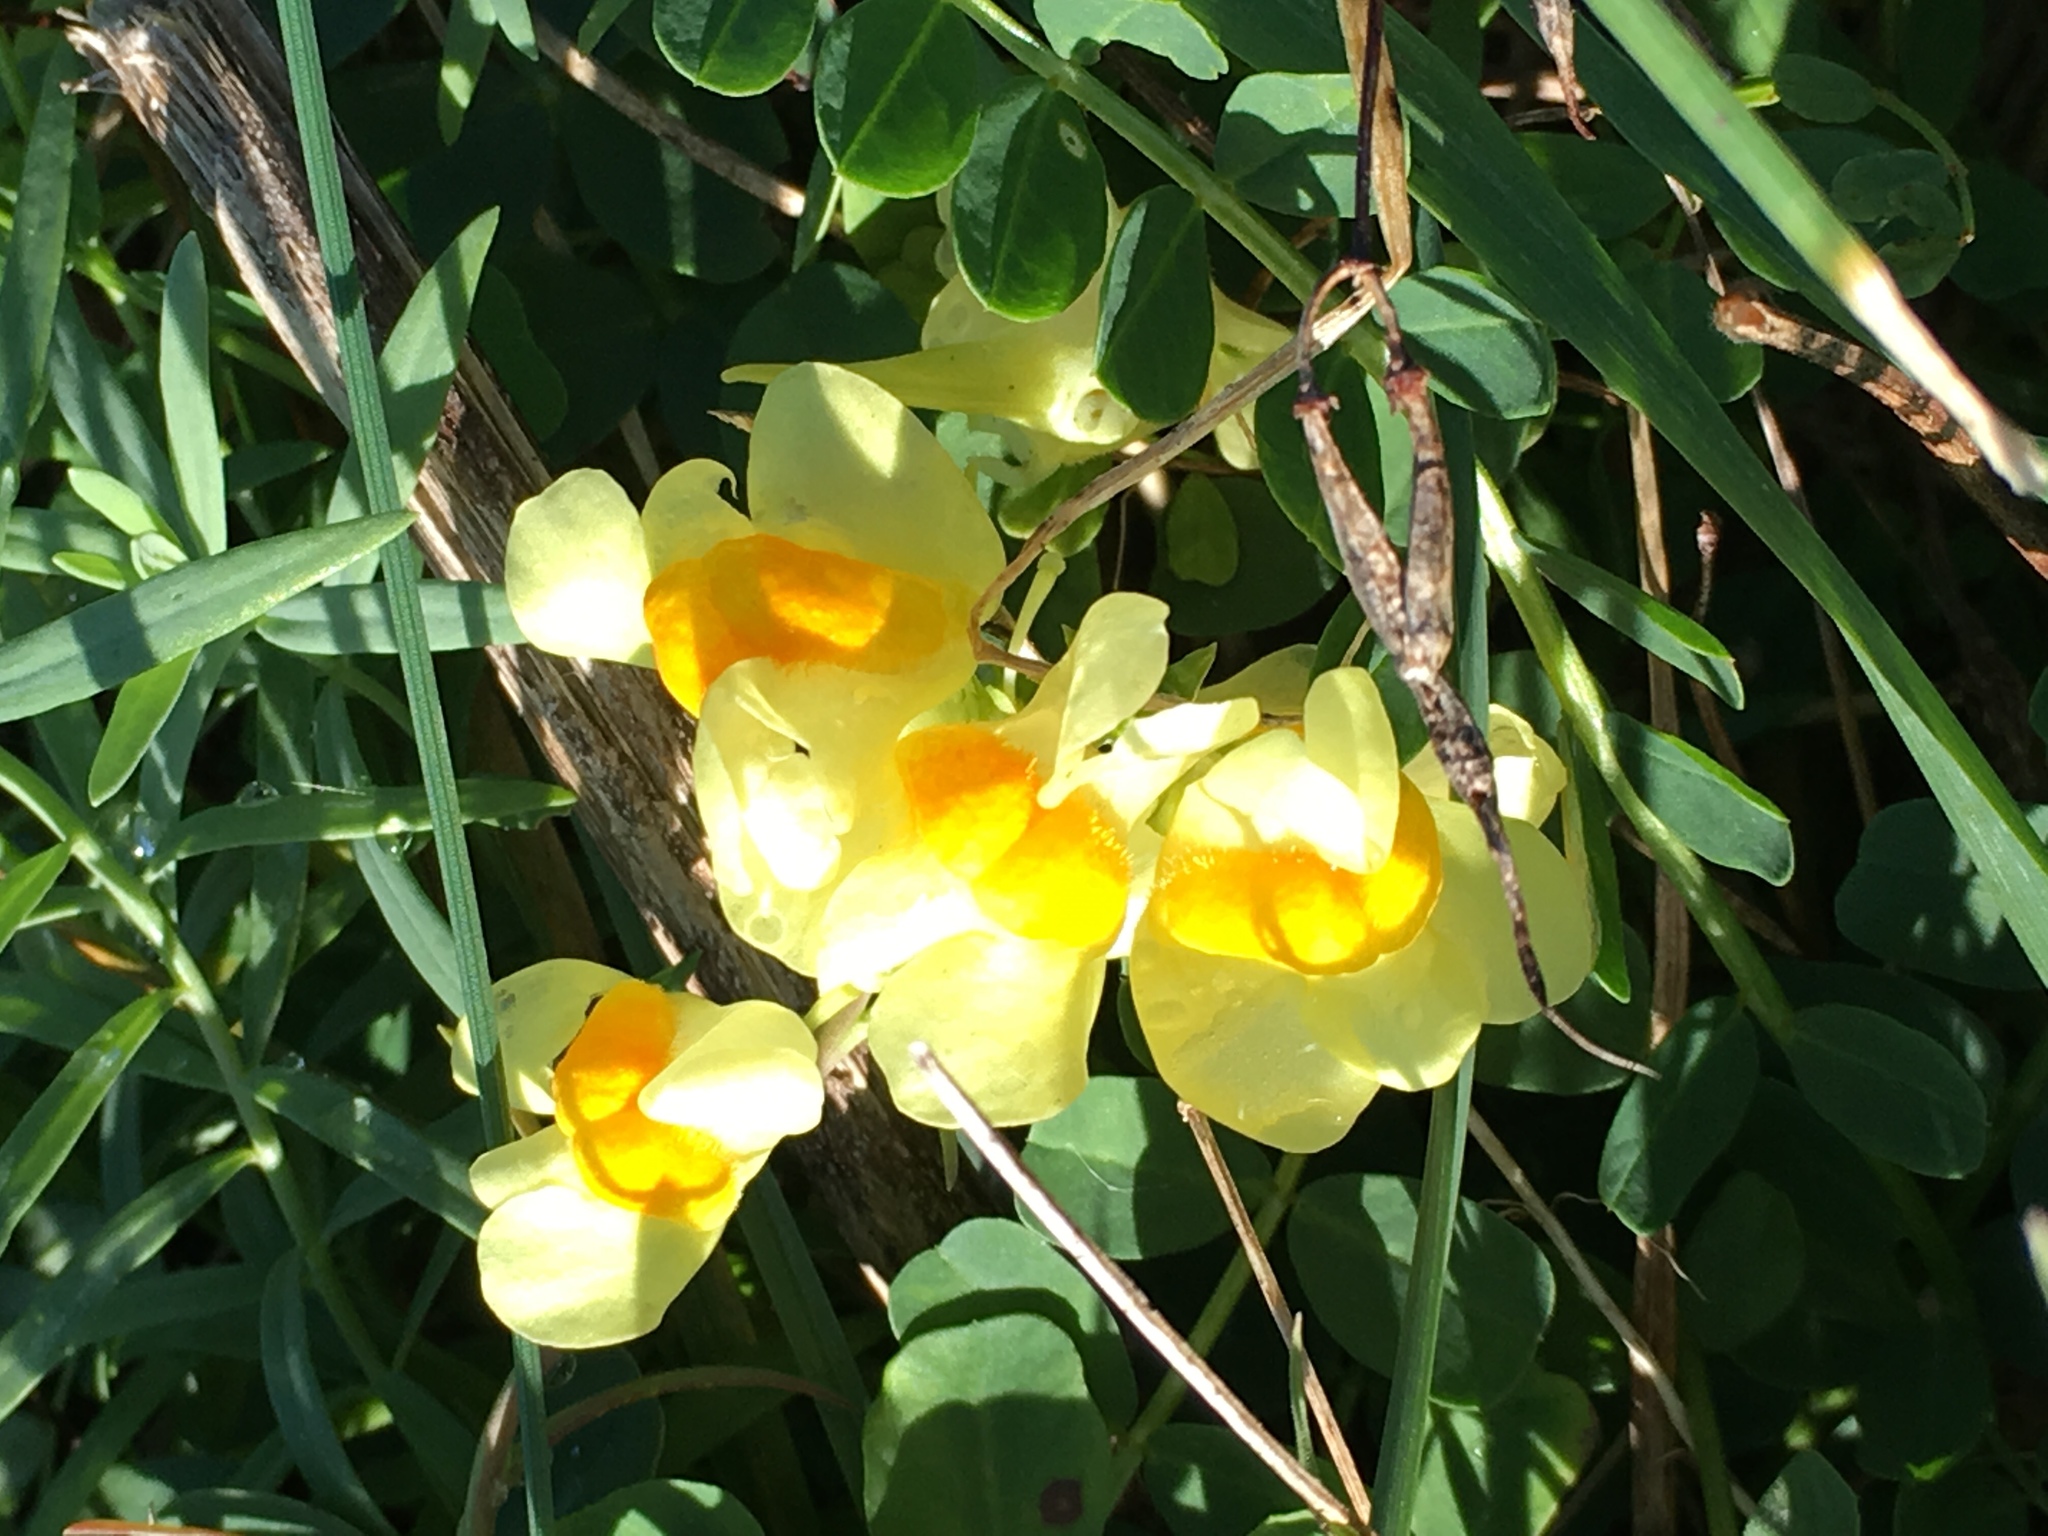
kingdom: Plantae
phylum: Tracheophyta
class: Magnoliopsida
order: Lamiales
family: Plantaginaceae
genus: Linaria
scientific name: Linaria vulgaris
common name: Butter and eggs
